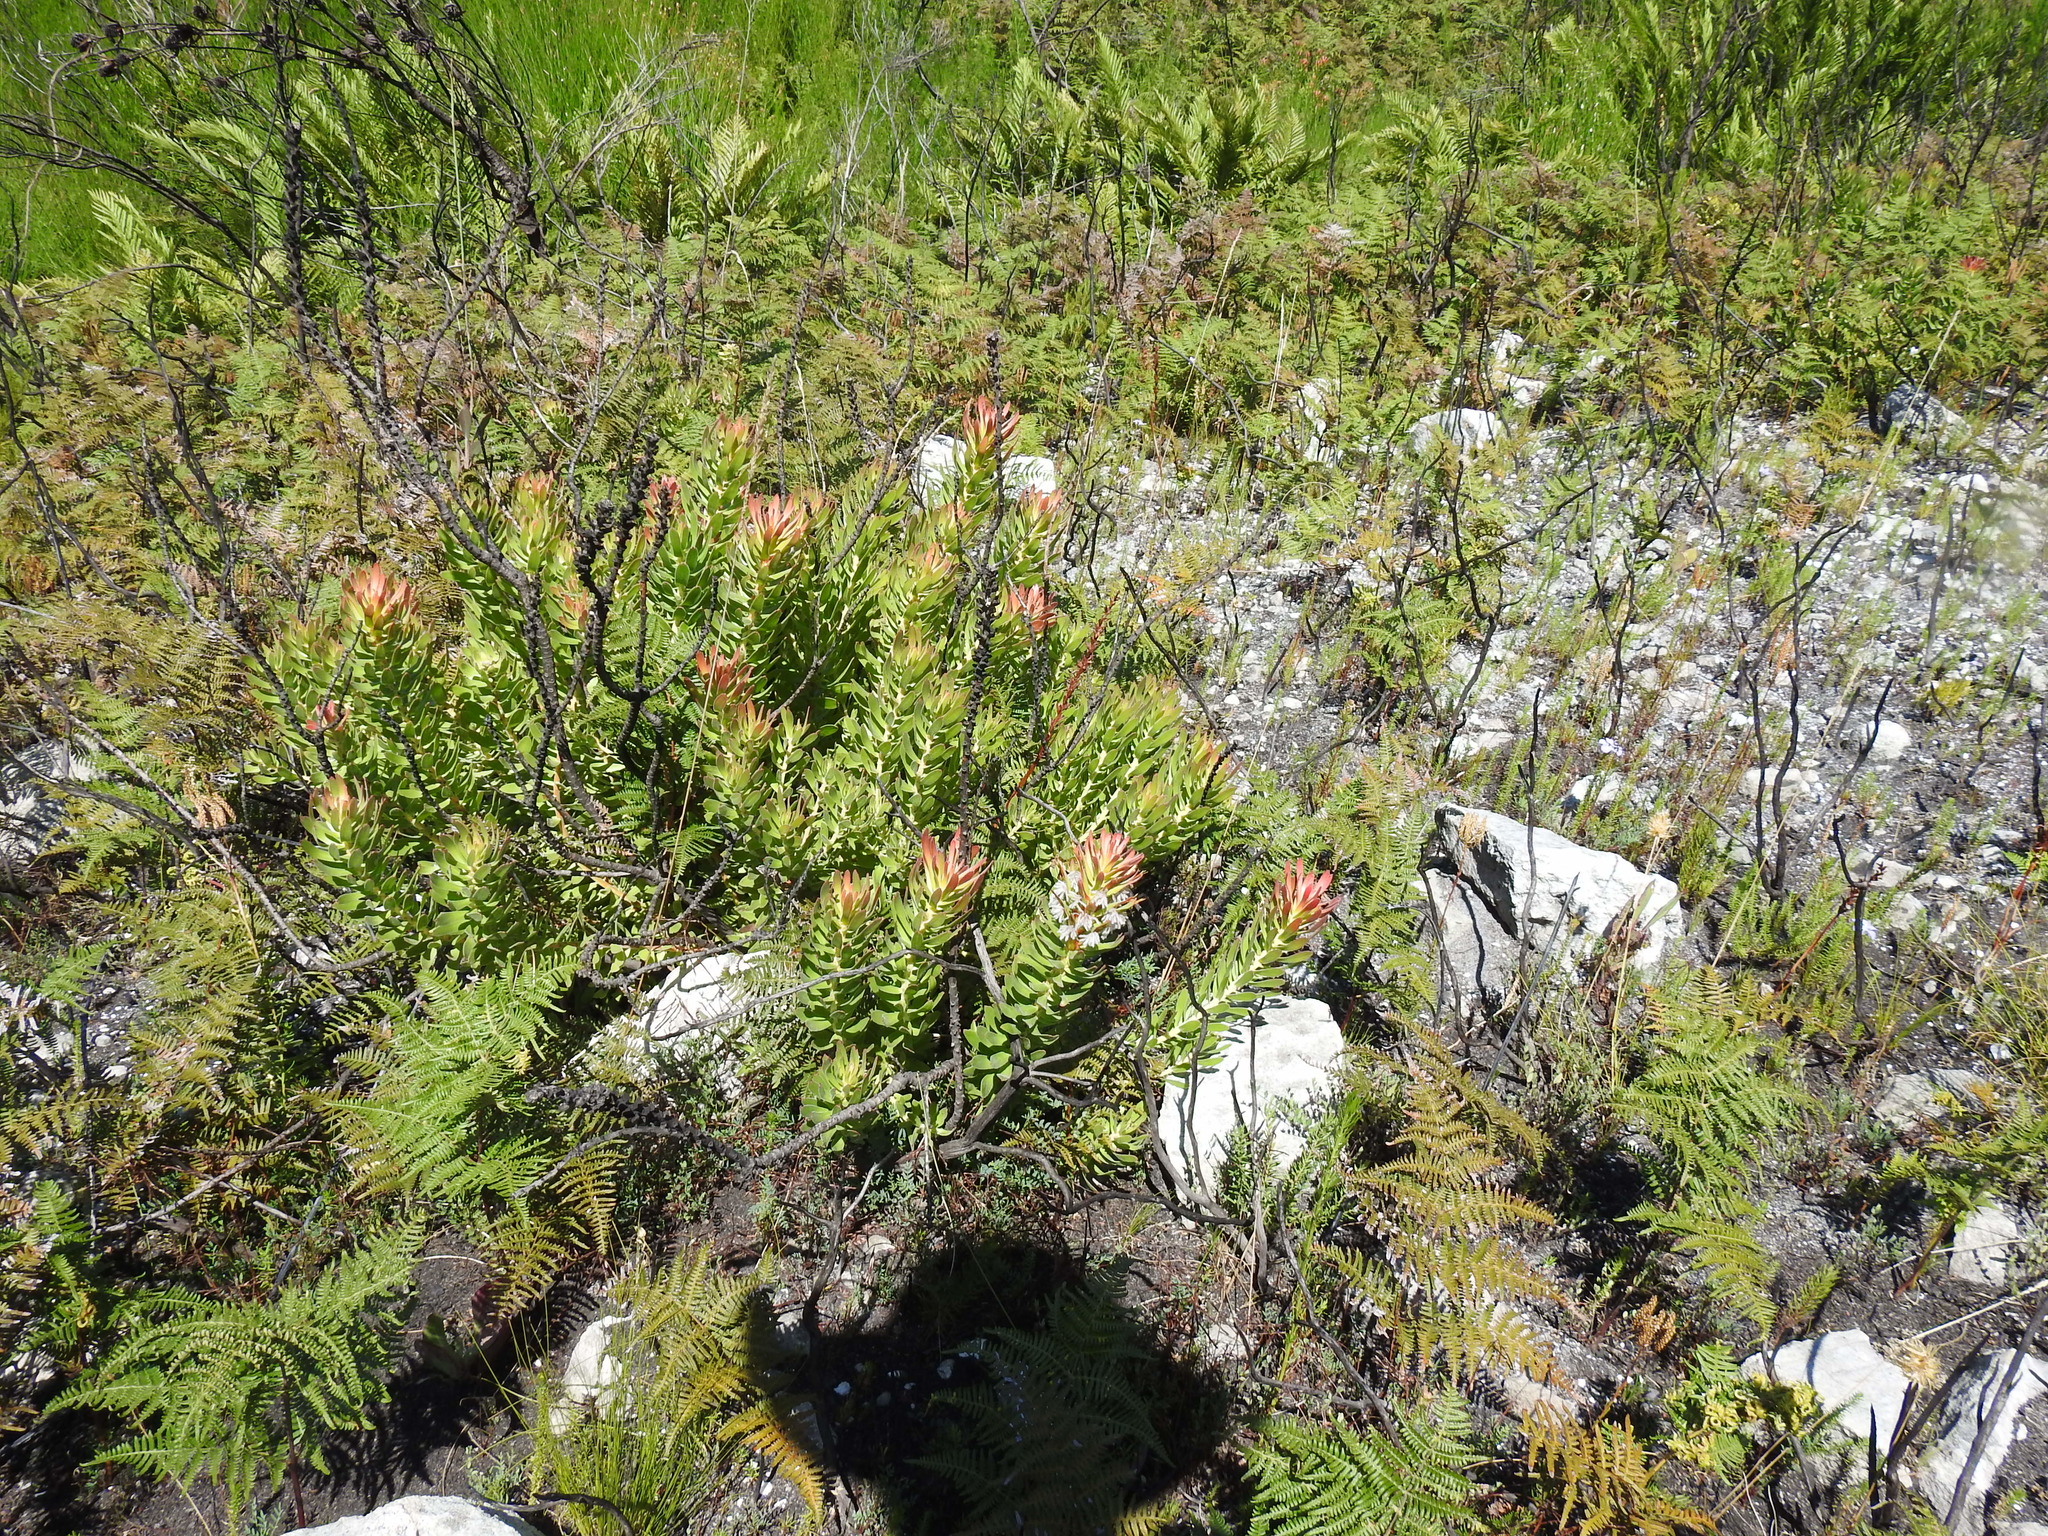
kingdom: Plantae
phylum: Tracheophyta
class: Magnoliopsida
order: Proteales
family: Proteaceae
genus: Mimetes
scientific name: Mimetes cucullatus
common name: Common pagoda
